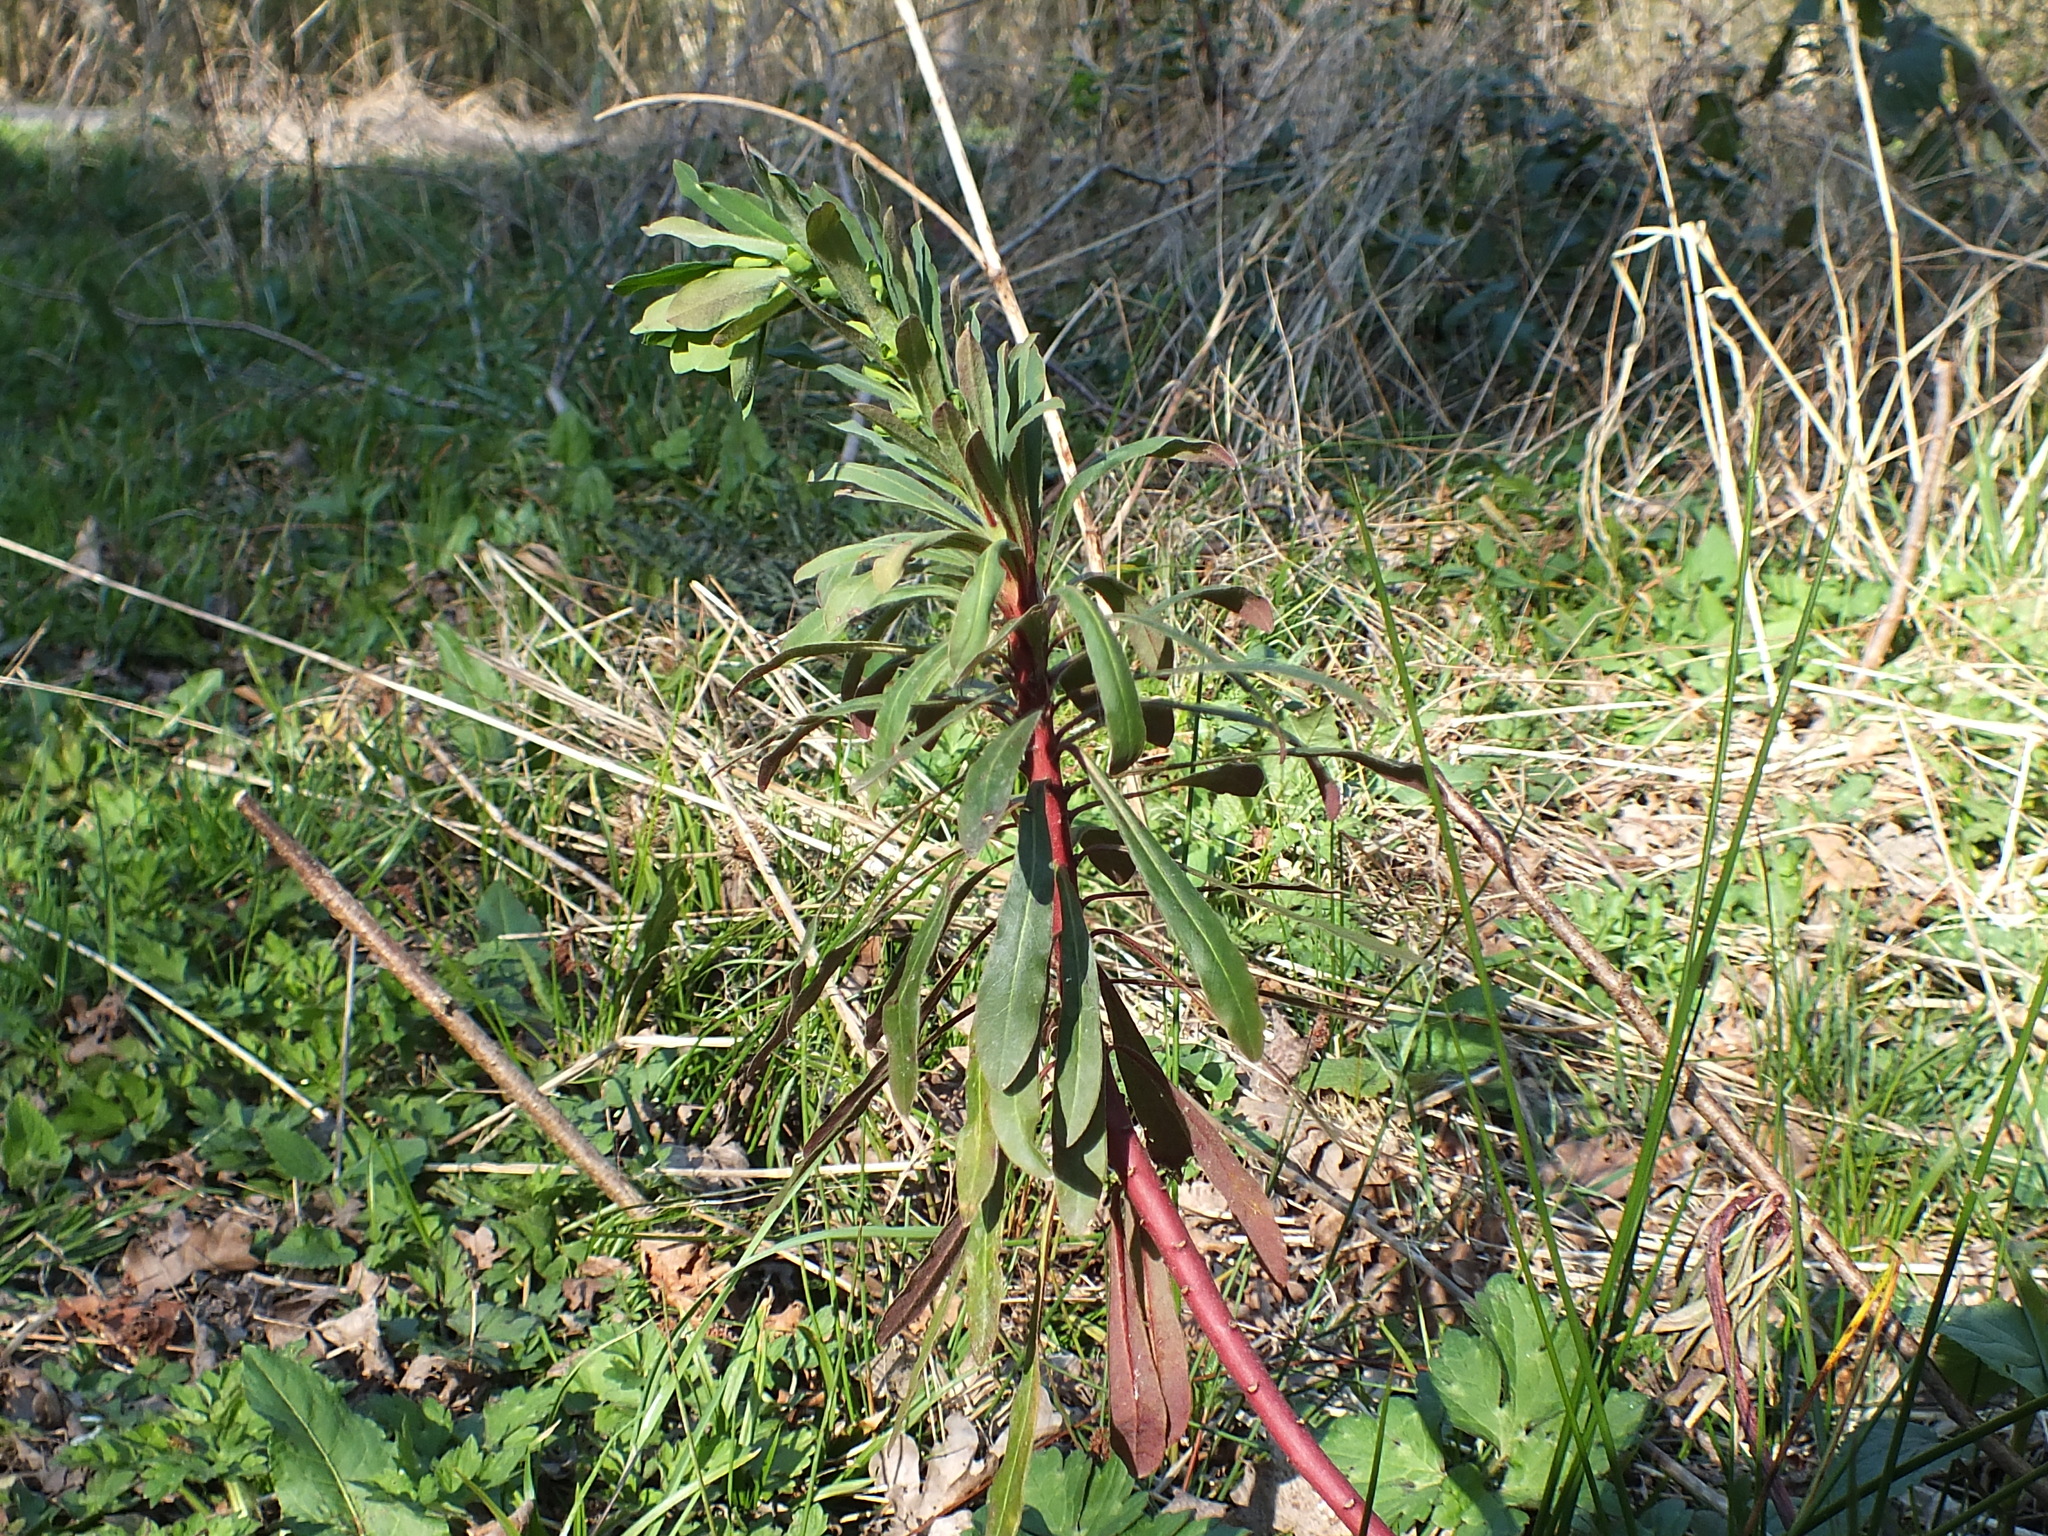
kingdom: Plantae
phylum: Tracheophyta
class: Magnoliopsida
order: Malpighiales
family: Euphorbiaceae
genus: Euphorbia
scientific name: Euphorbia amygdaloides
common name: Wood spurge
